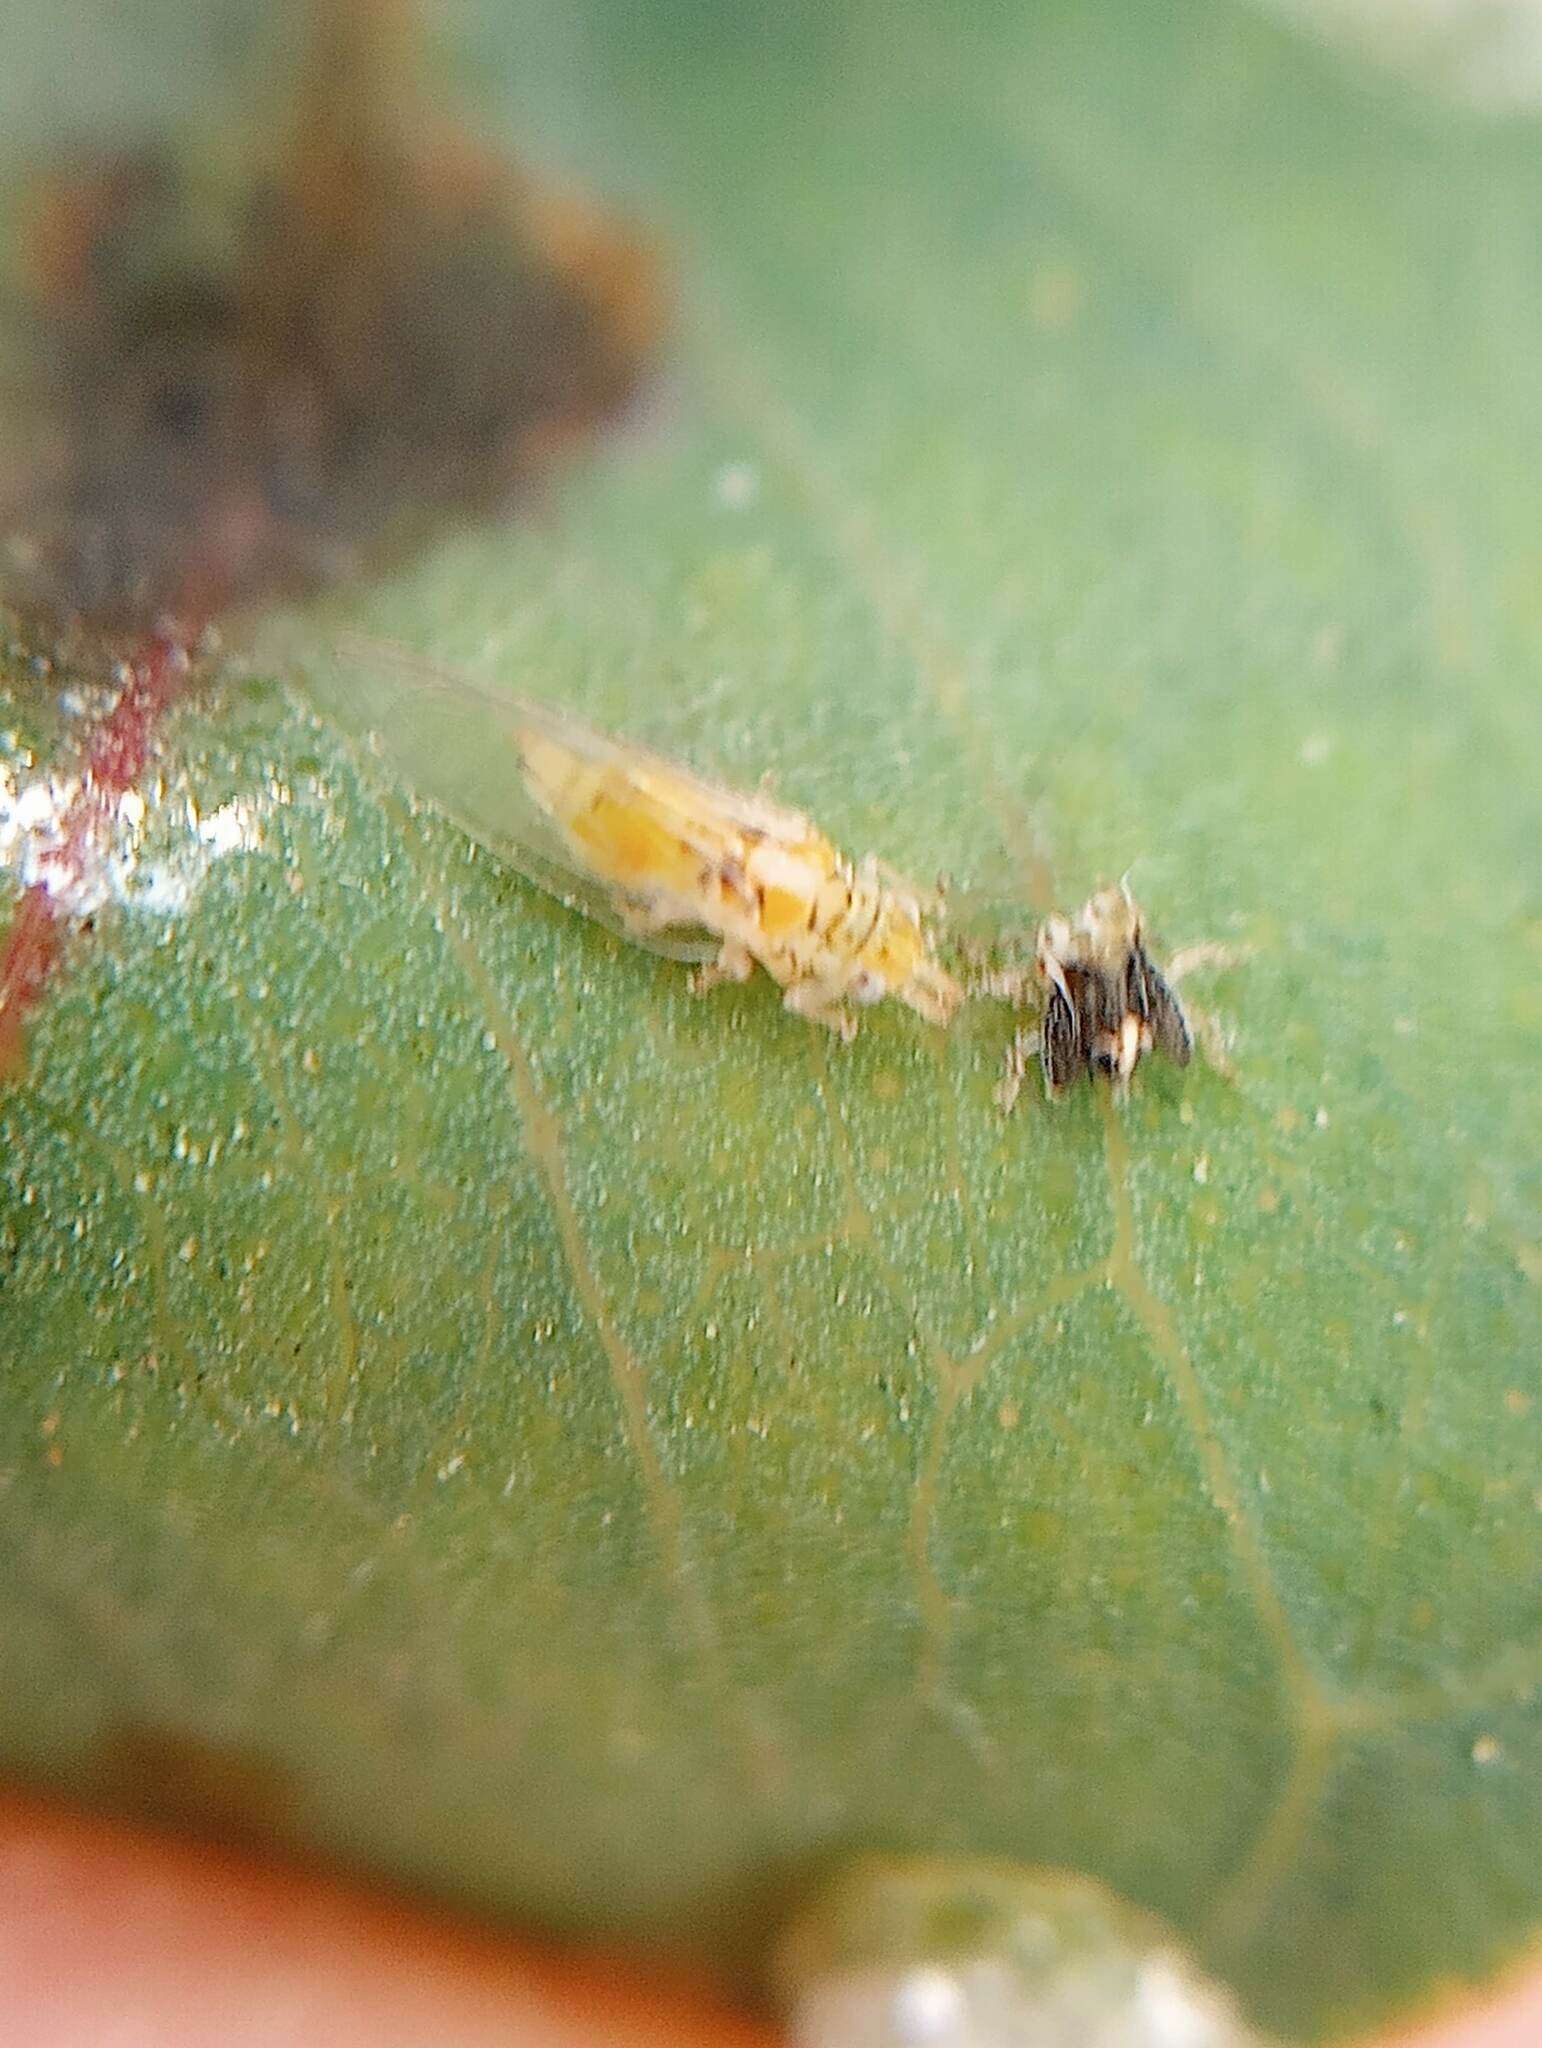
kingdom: Animalia
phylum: Arthropoda
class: Insecta
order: Hemiptera
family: Aphalaridae
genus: Glycaspis
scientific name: Glycaspis brimblecombei
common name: Red gum lerp psyllid
